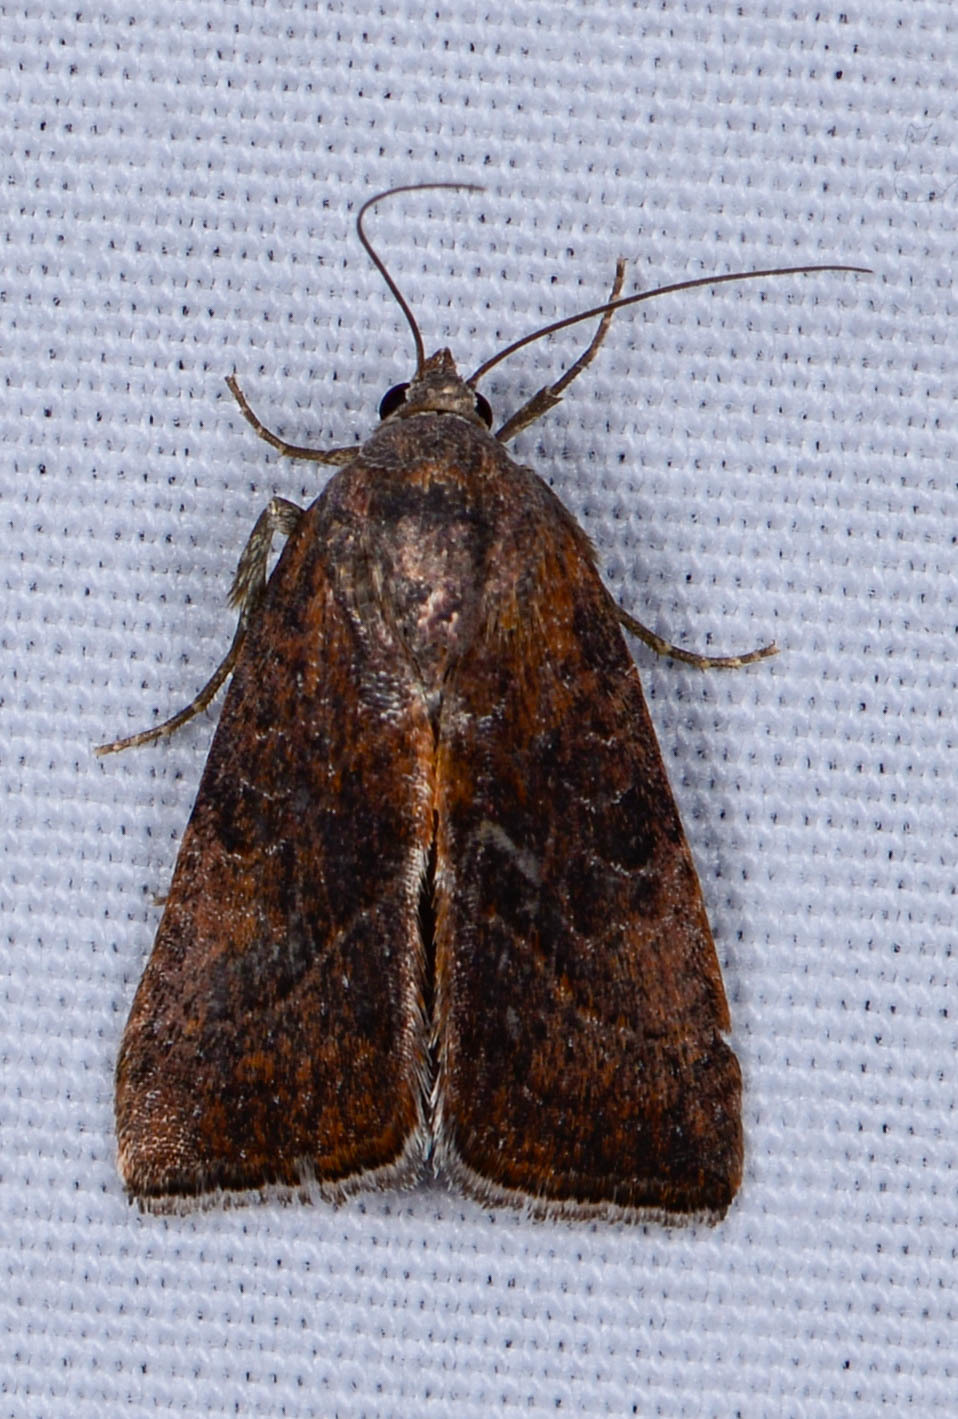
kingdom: Animalia
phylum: Arthropoda
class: Insecta
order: Lepidoptera
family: Noctuidae
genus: Galgula
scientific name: Galgula partita
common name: Wedgeling
